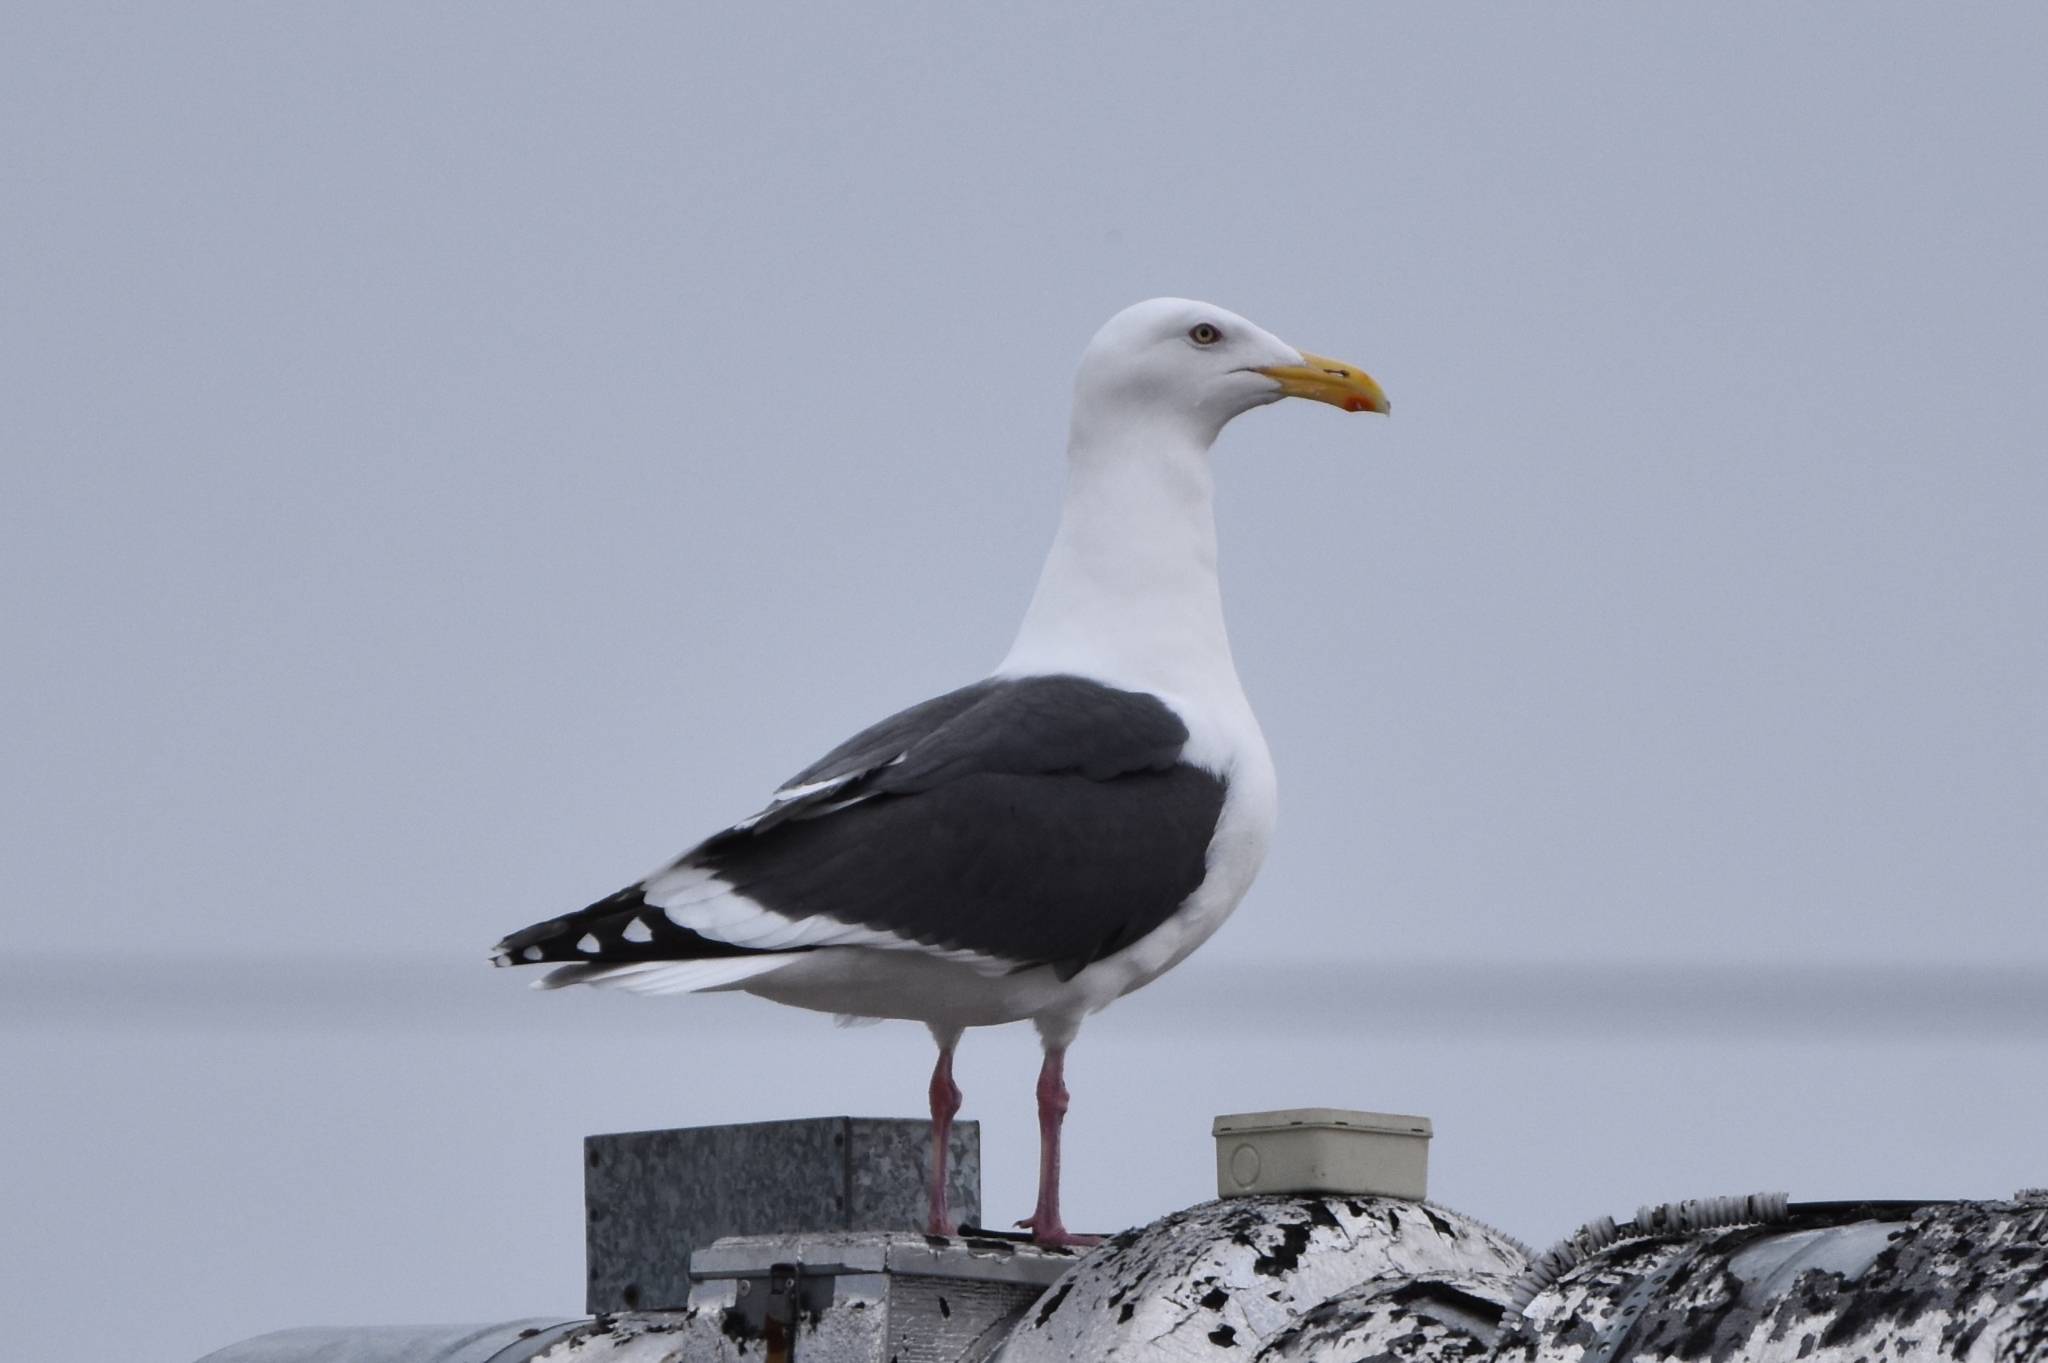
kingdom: Animalia
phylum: Chordata
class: Aves
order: Charadriiformes
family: Laridae
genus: Larus
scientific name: Larus schistisagus
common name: Slaty-backed gull
